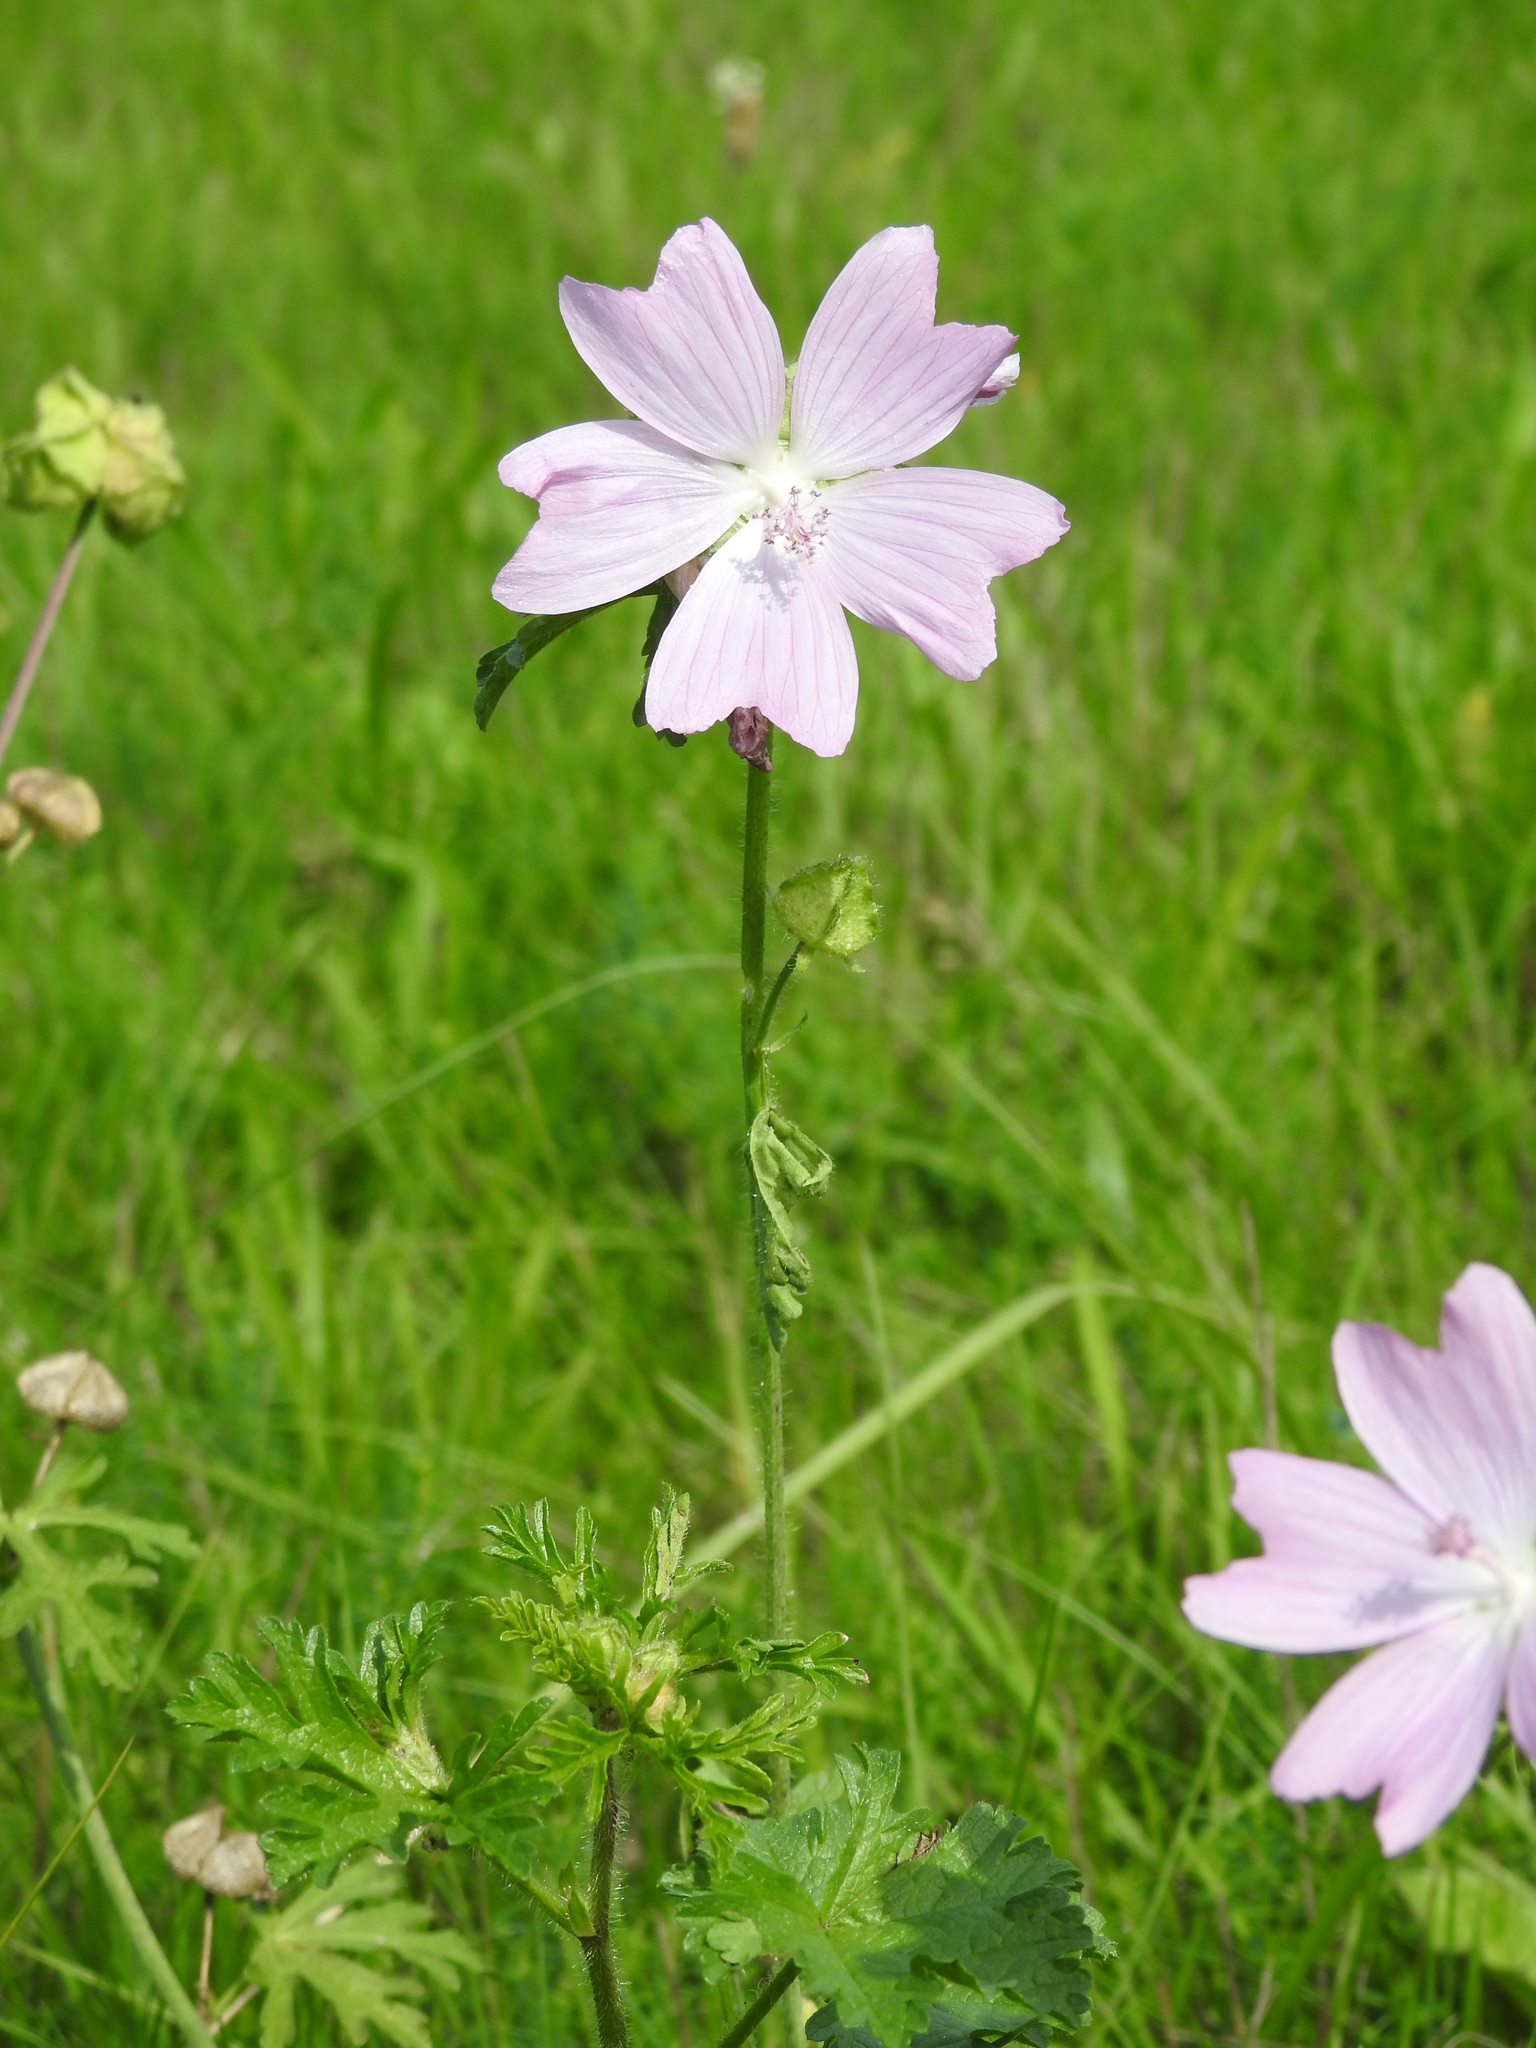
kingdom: Plantae
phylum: Tracheophyta
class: Magnoliopsida
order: Malvales
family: Malvaceae
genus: Malva
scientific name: Malva moschata
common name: Musk mallow
